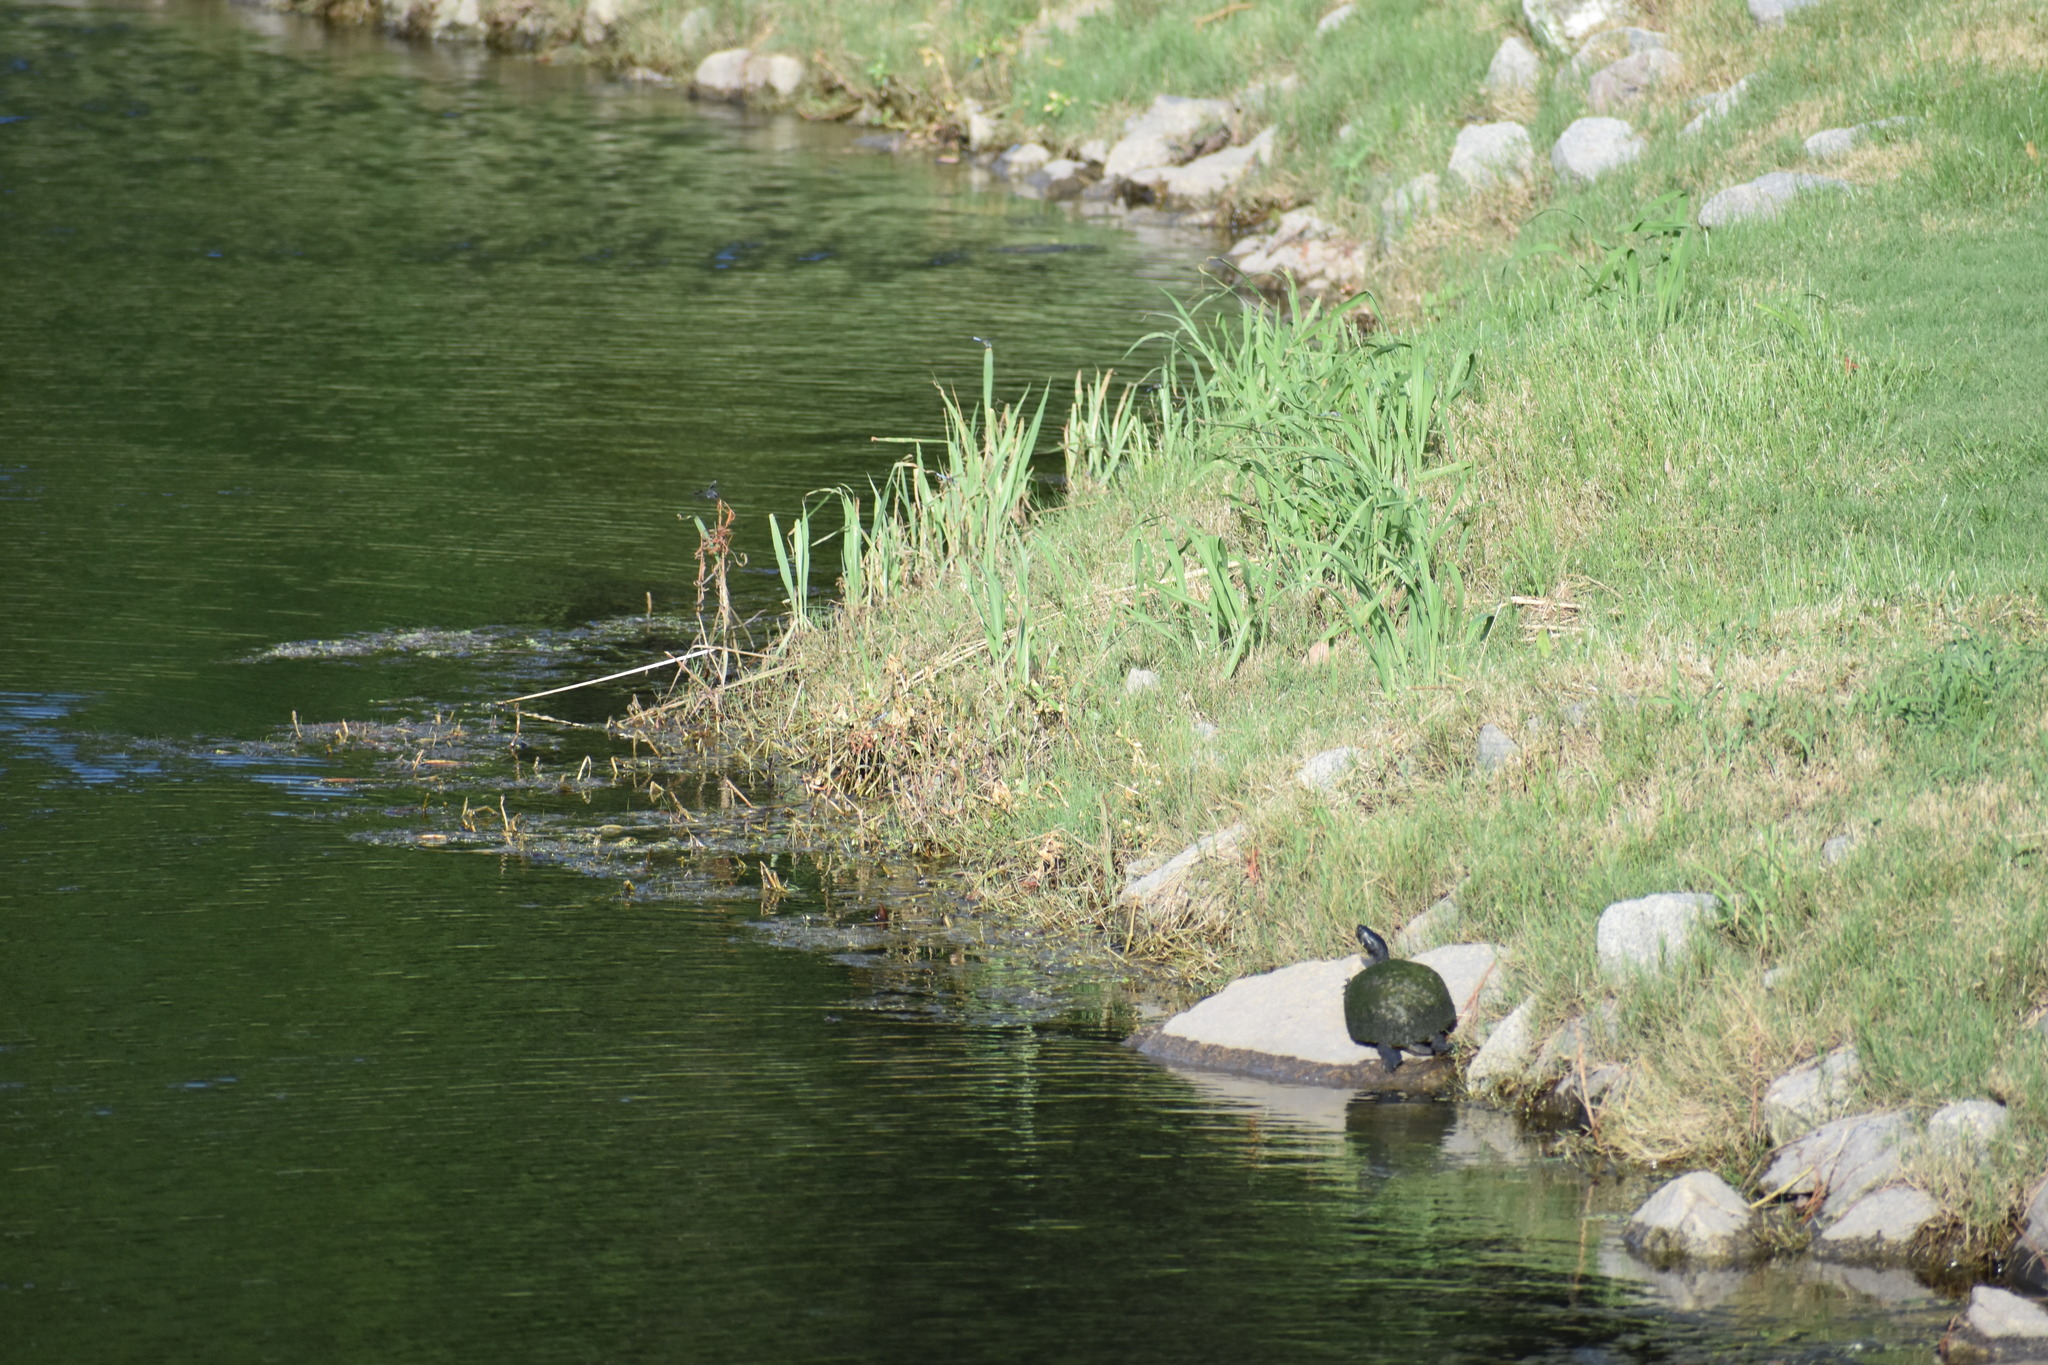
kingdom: Animalia
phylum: Chordata
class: Testudines
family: Emydidae
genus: Trachemys
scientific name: Trachemys scripta
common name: Slider
